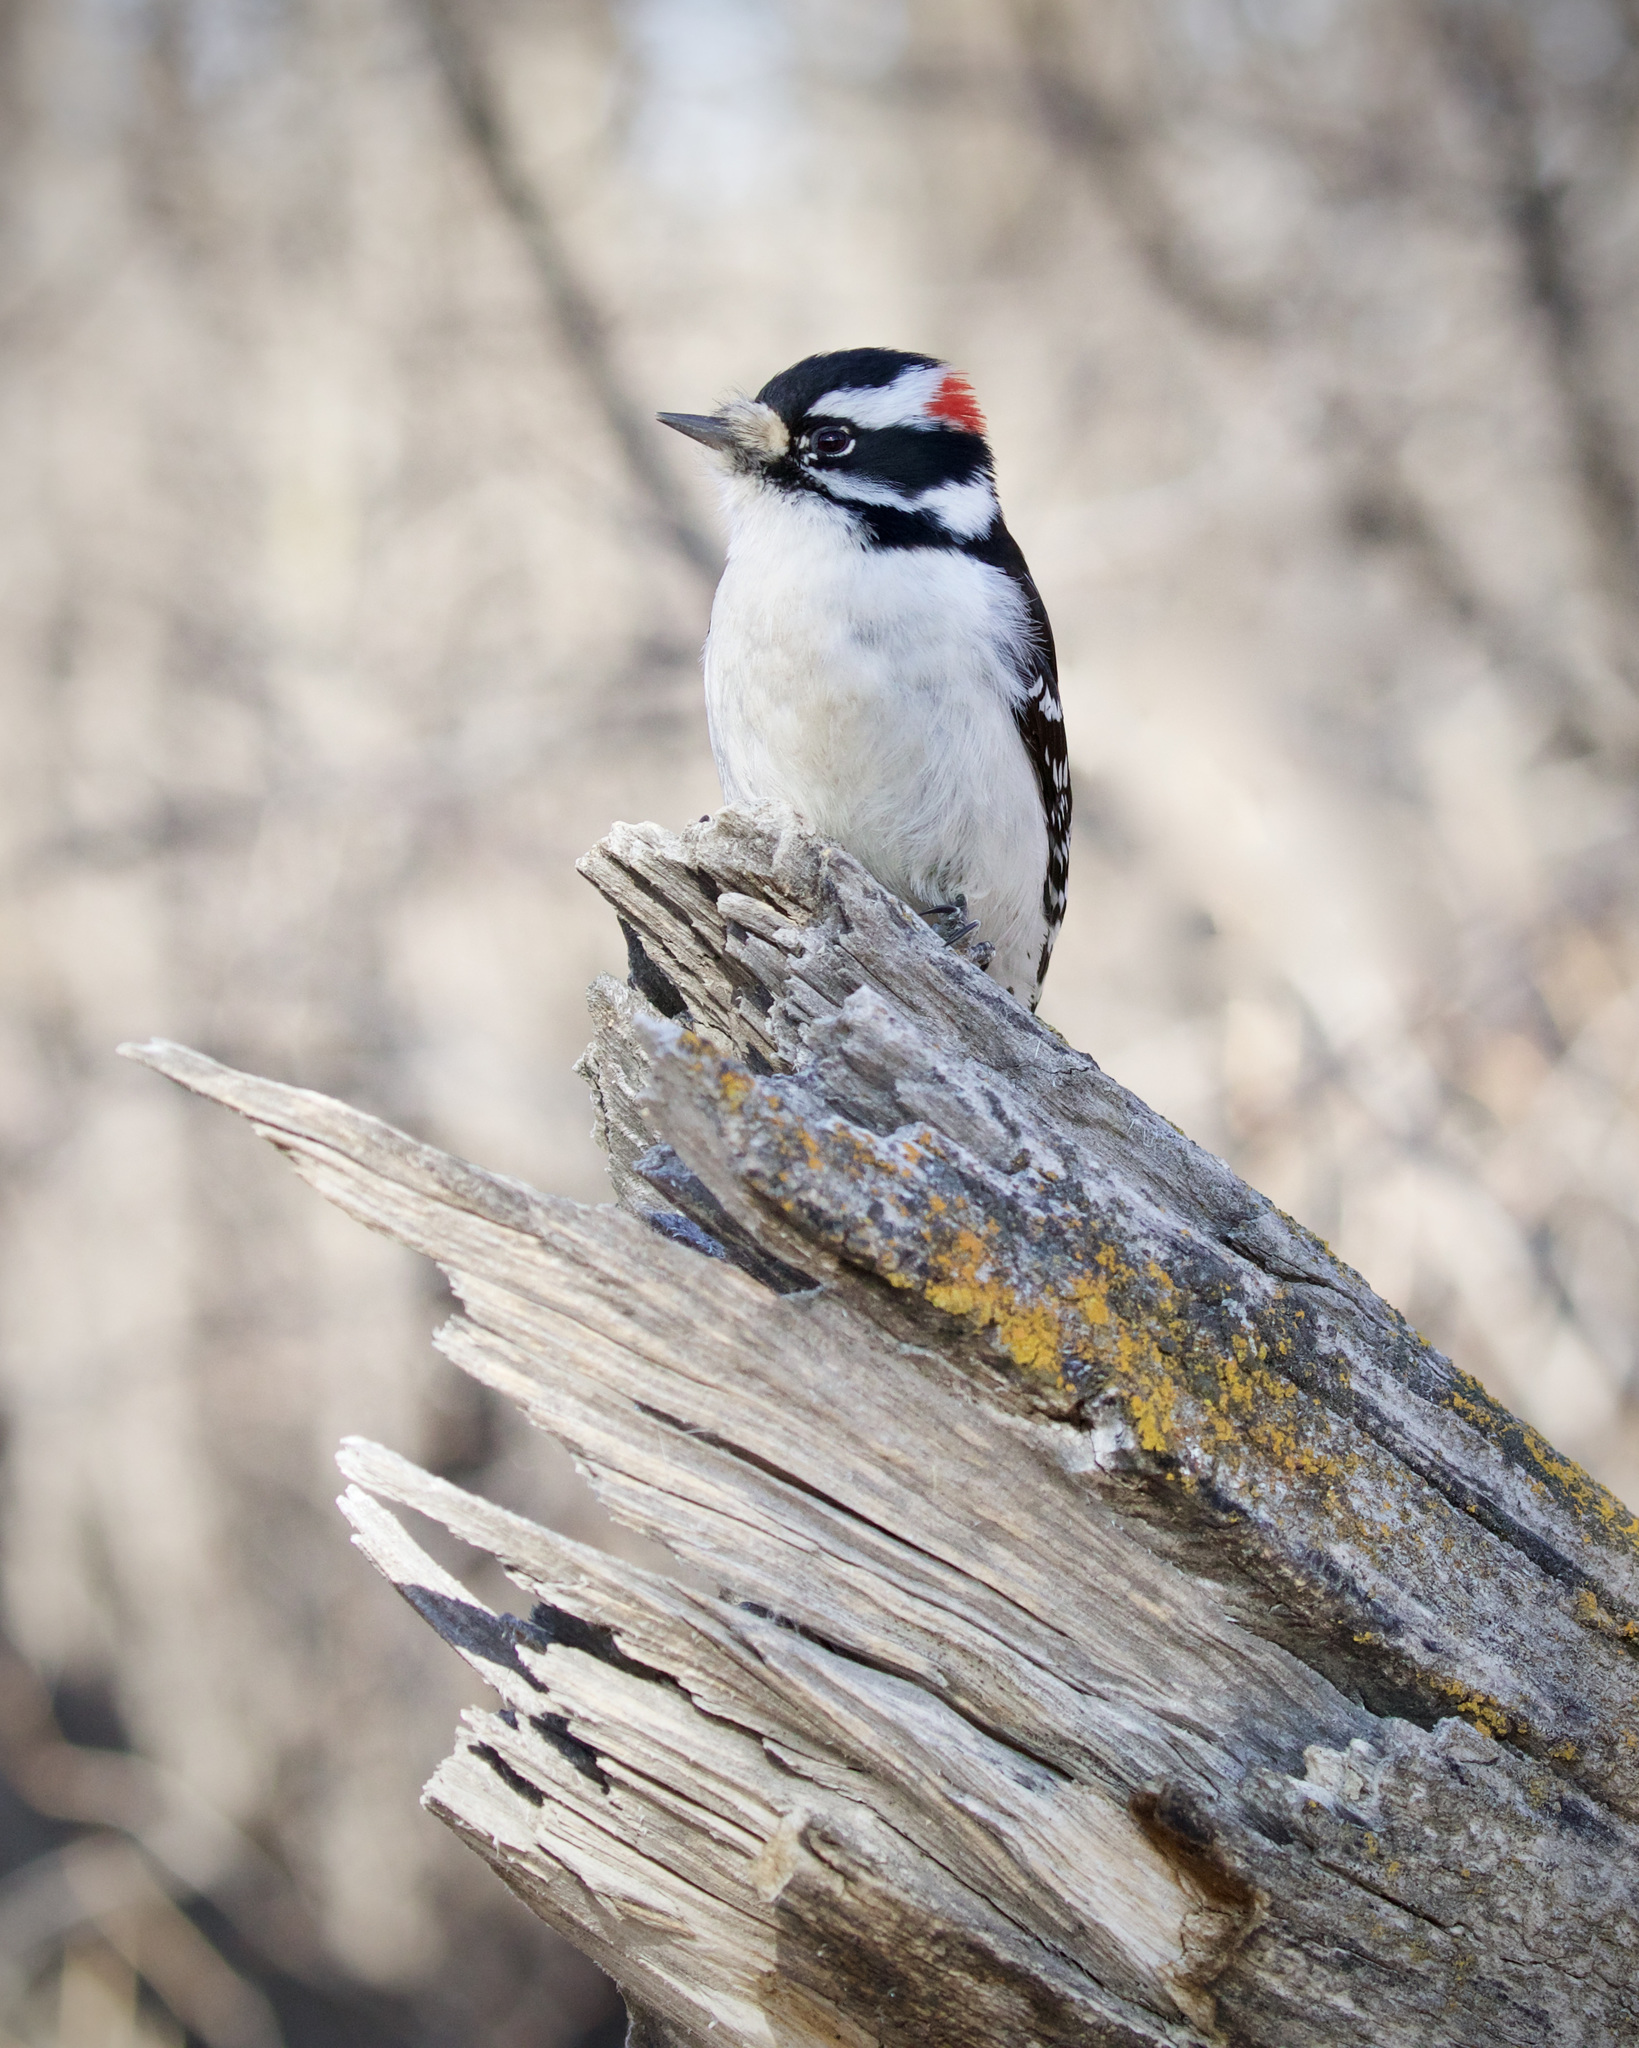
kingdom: Animalia
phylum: Chordata
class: Aves
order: Piciformes
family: Picidae
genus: Dryobates
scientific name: Dryobates pubescens
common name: Downy woodpecker
